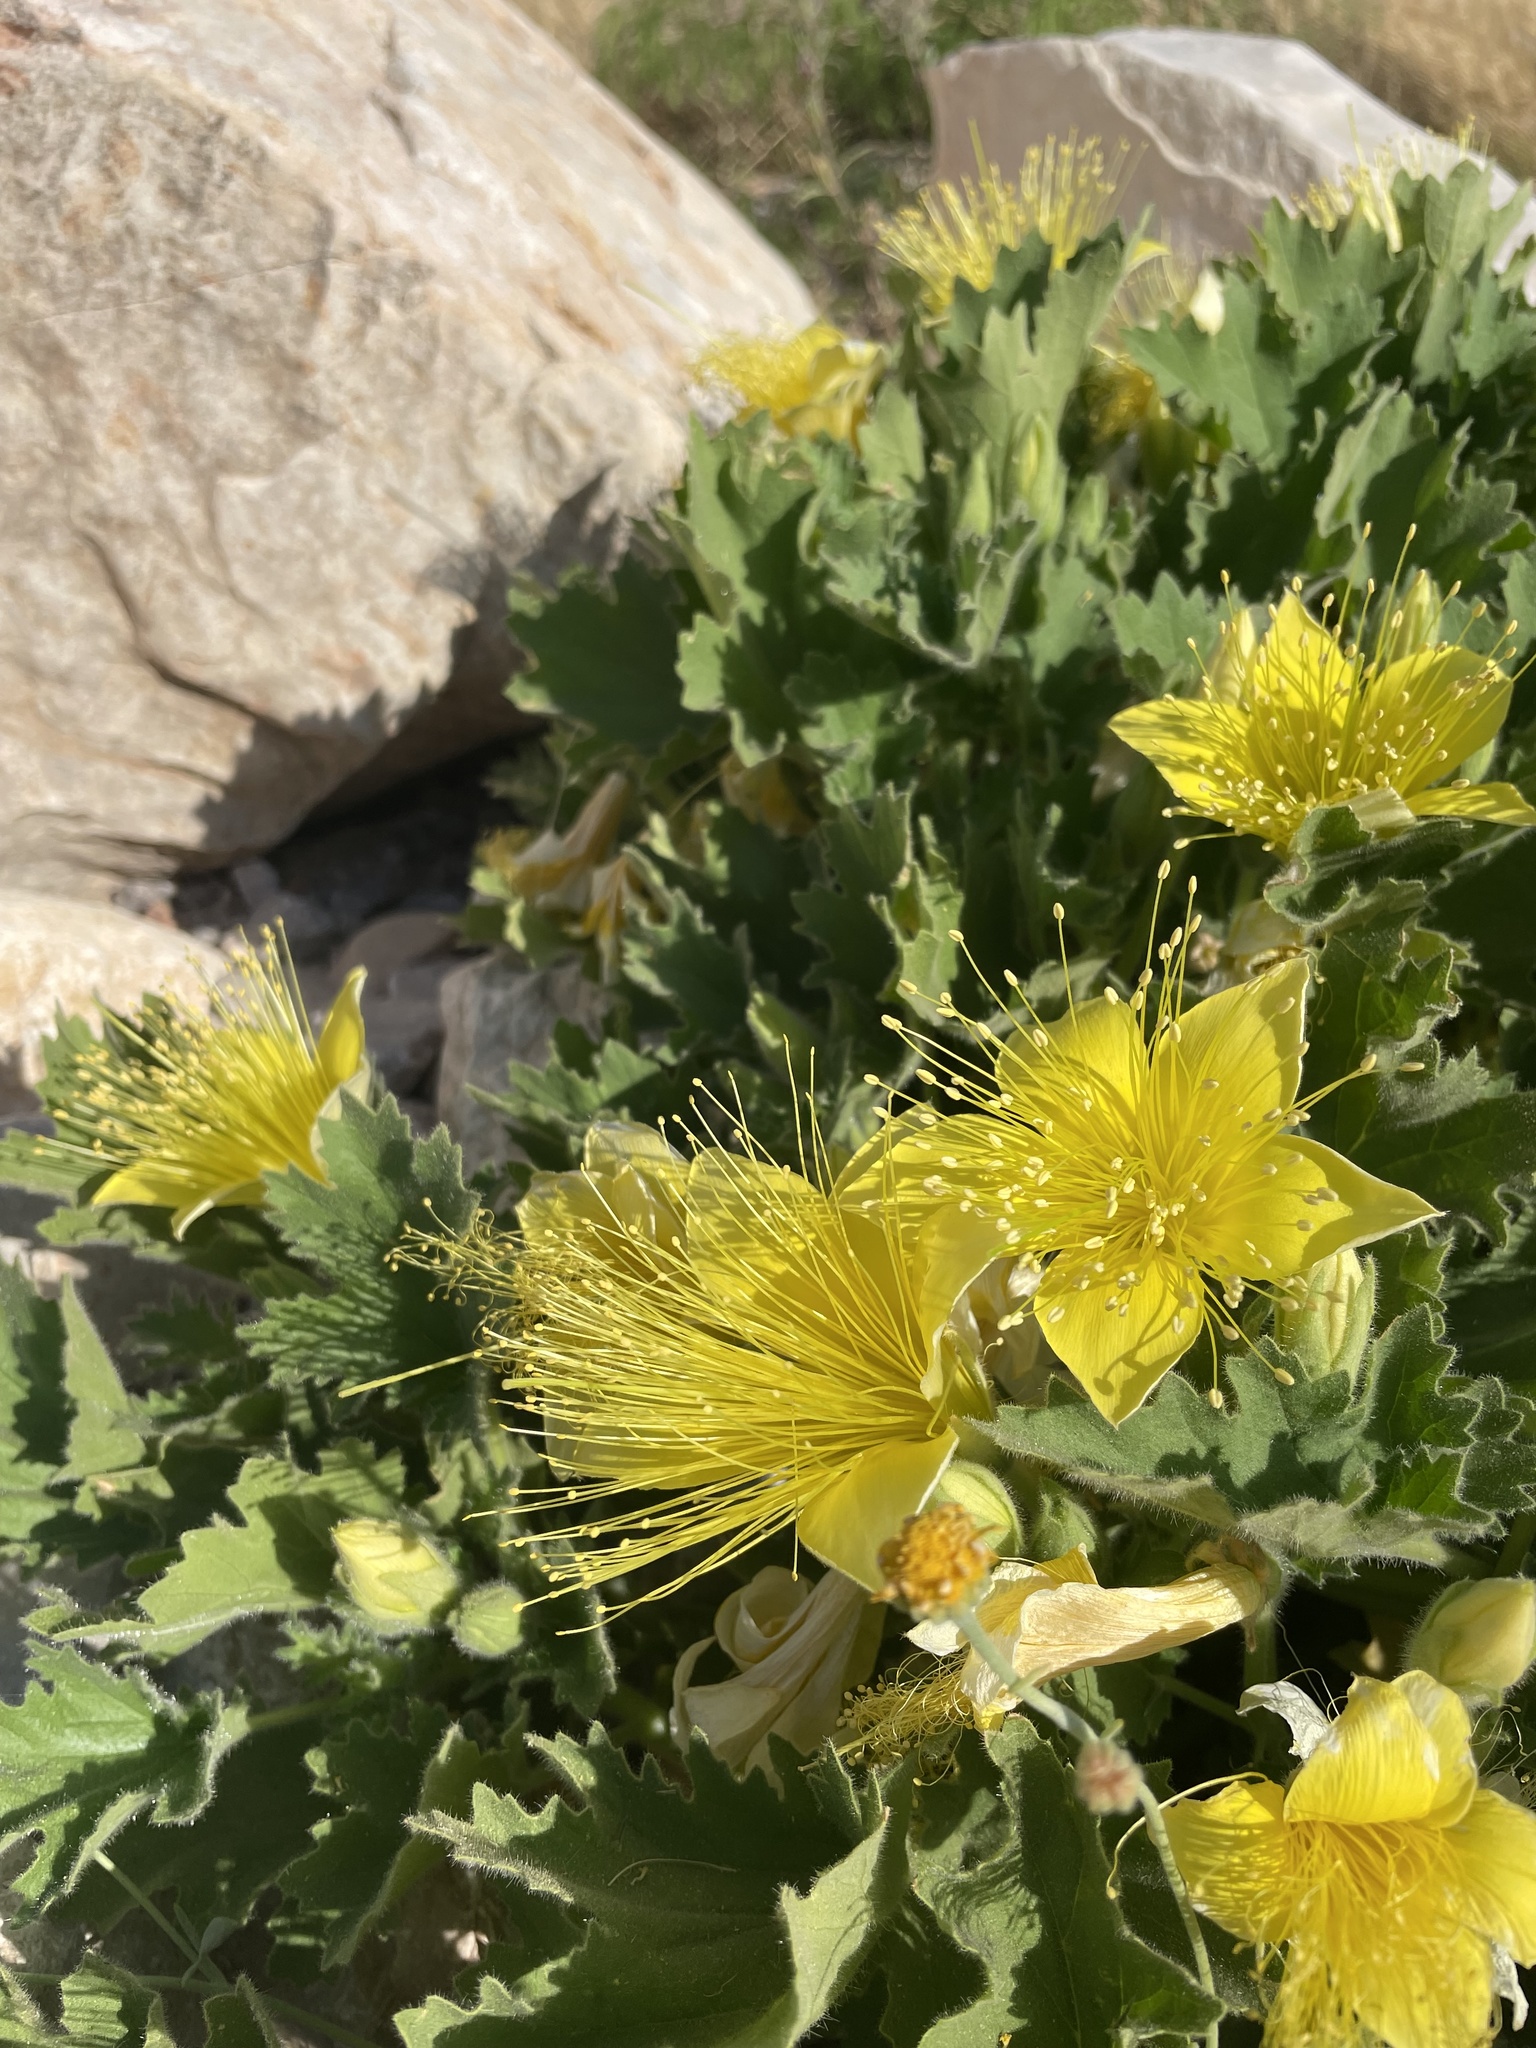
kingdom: Plantae
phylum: Tracheophyta
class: Magnoliopsida
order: Cornales
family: Loasaceae
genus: Eucnide
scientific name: Eucnide bartonioides
